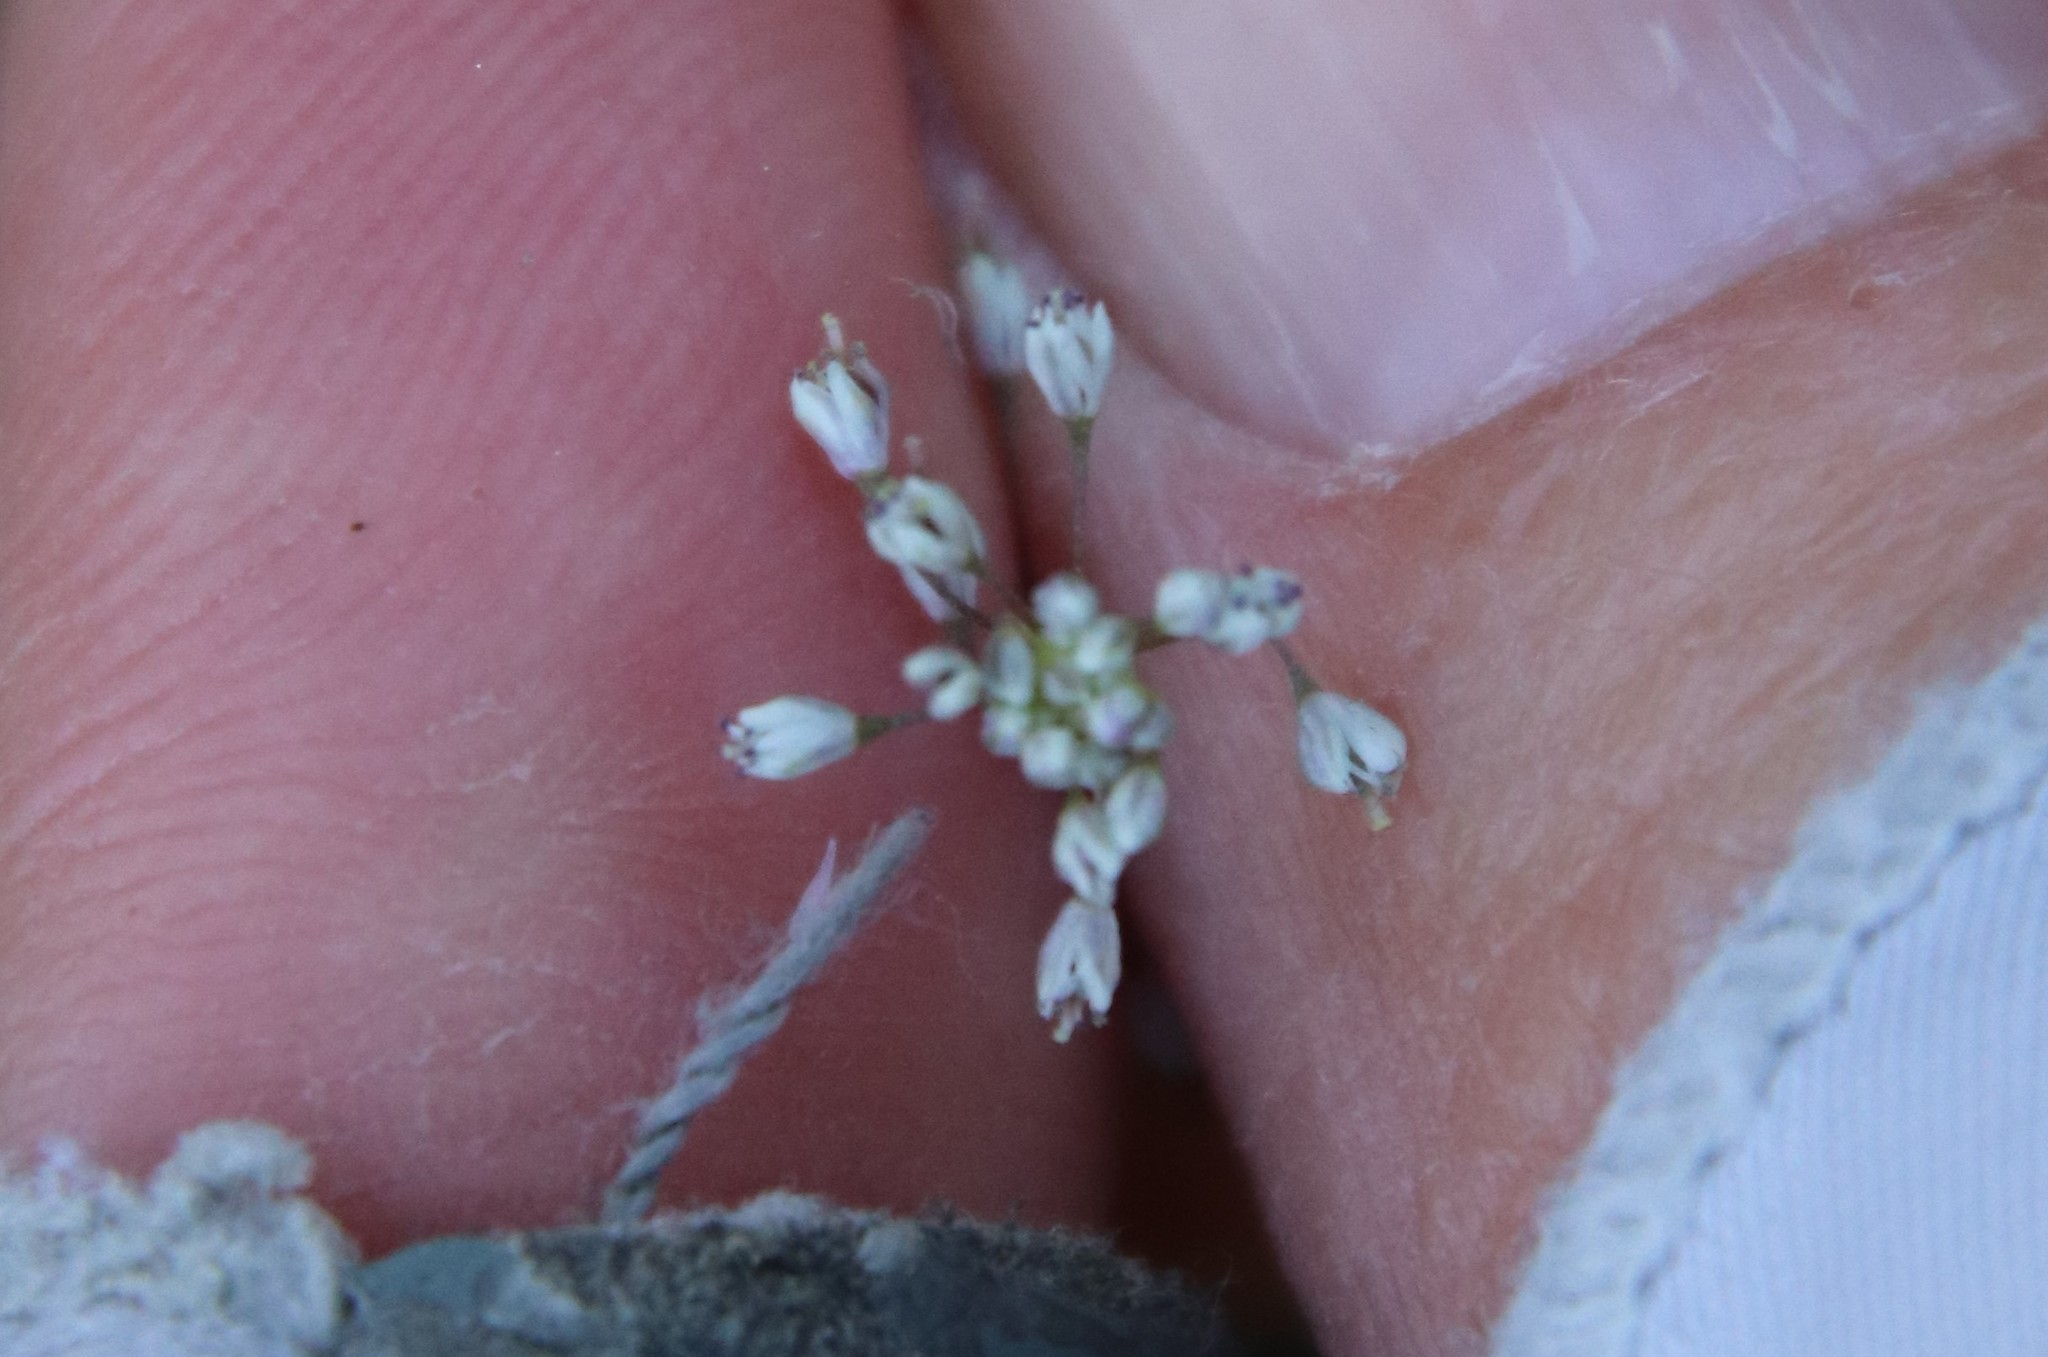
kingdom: Plantae
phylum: Tracheophyta
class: Magnoliopsida
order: Brassicales
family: Brassicaceae
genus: Thysanocarpus
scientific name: Thysanocarpus laciniatus
